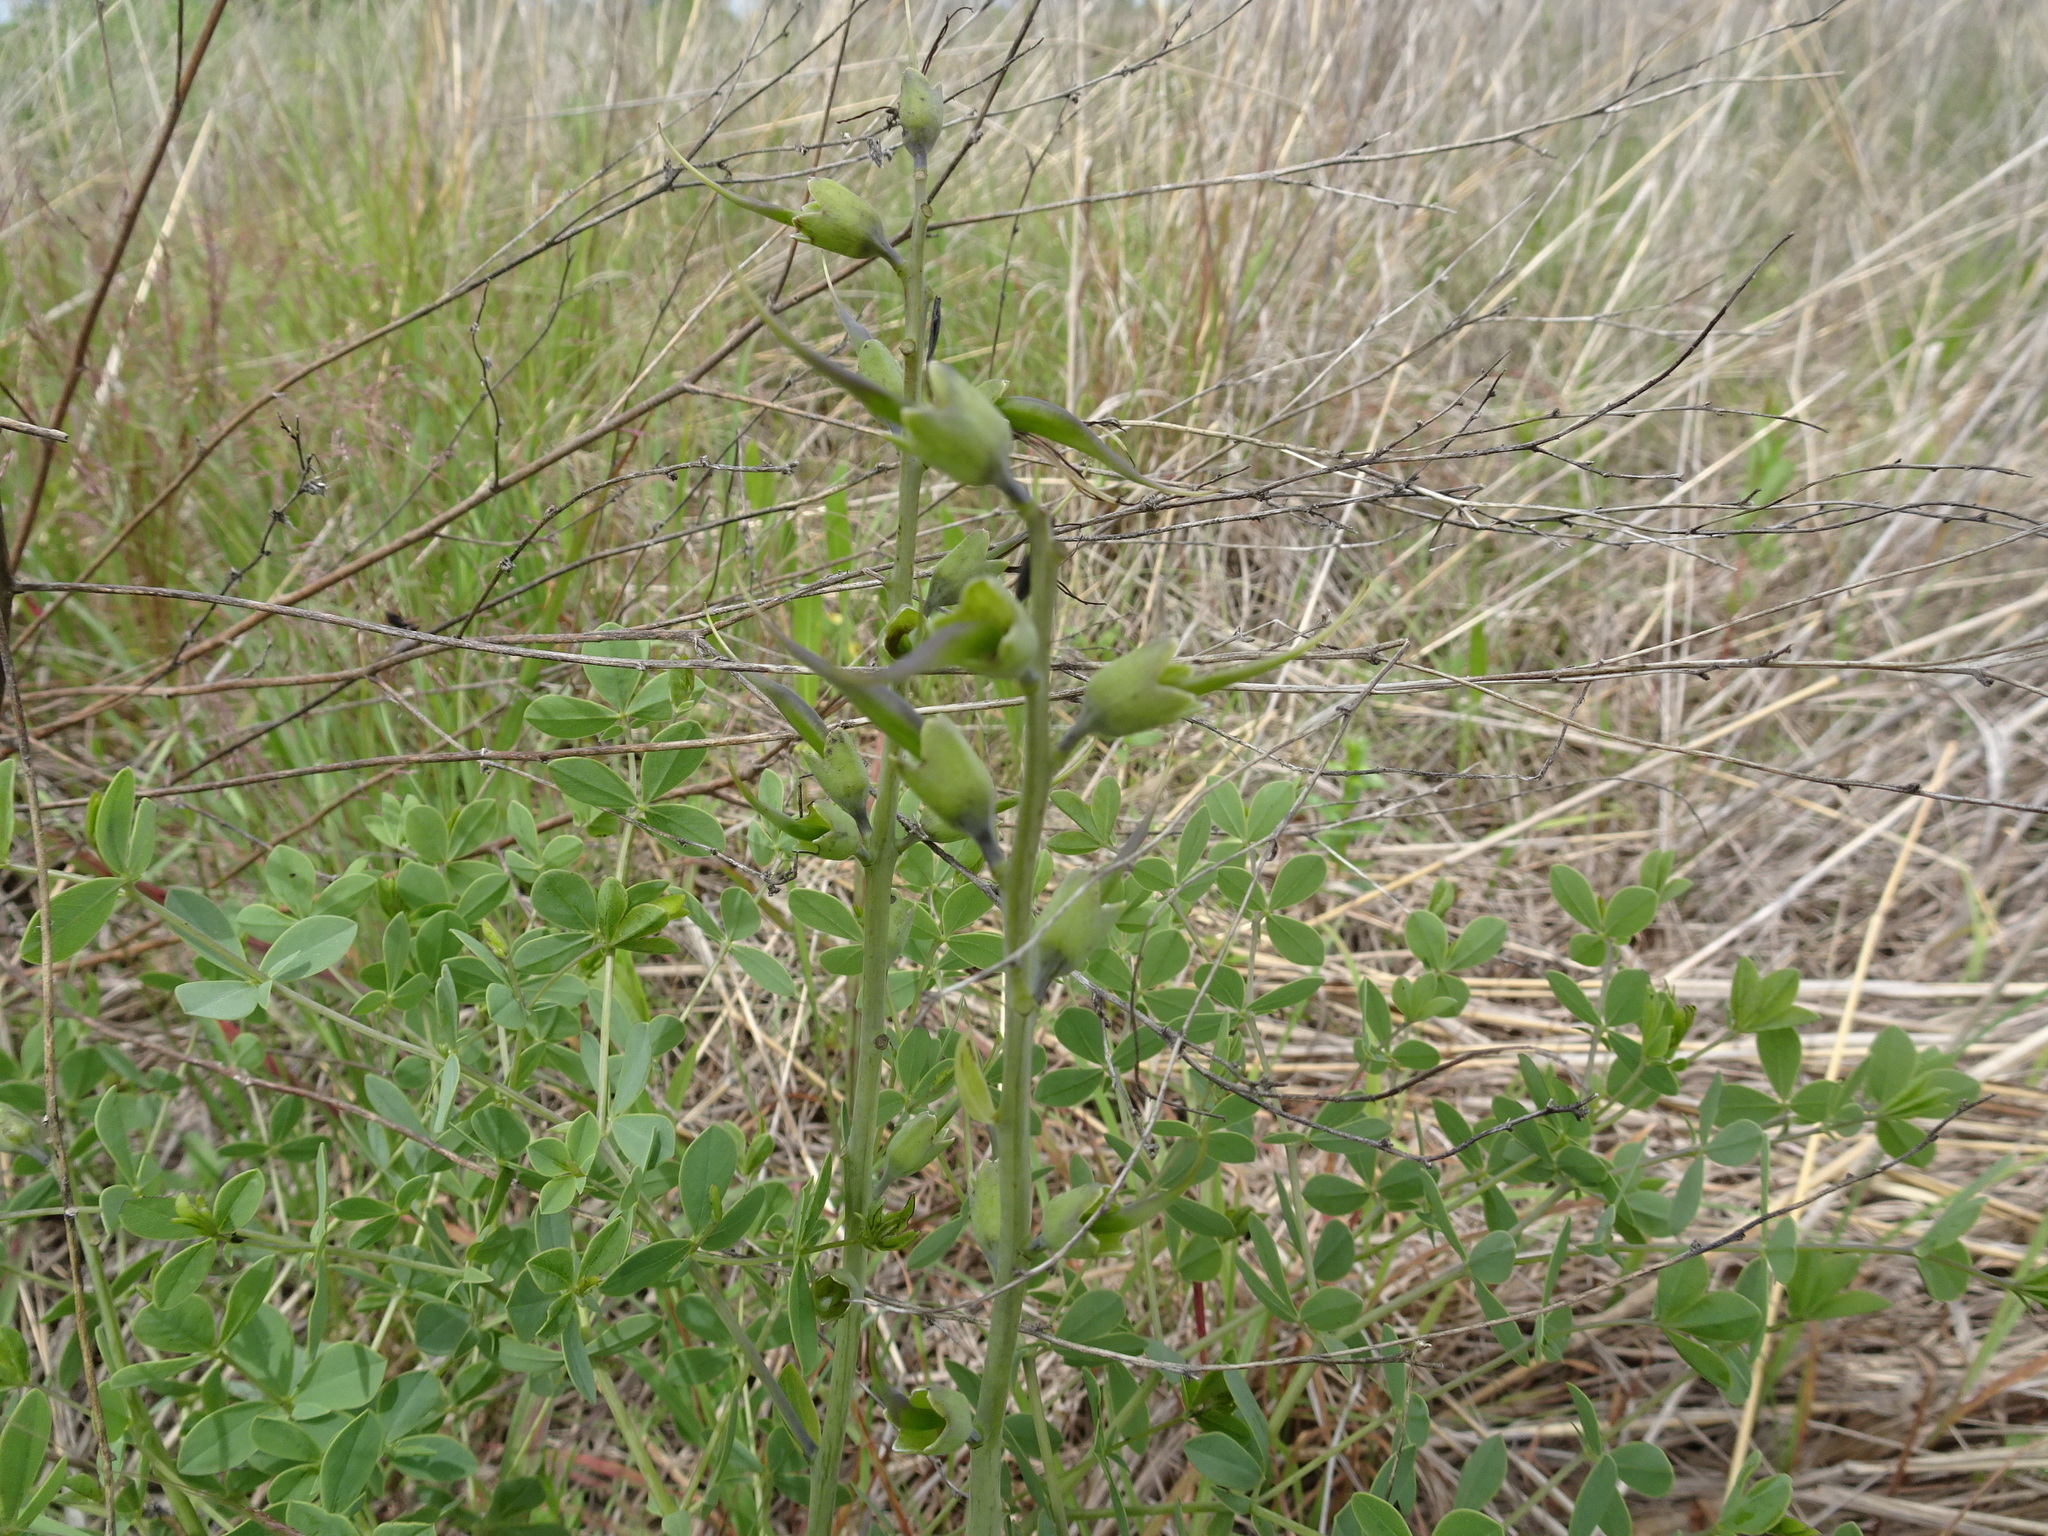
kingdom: Plantae
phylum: Tracheophyta
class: Magnoliopsida
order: Fabales
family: Fabaceae
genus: Baptisia
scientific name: Baptisia australis
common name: Blue false indigo
